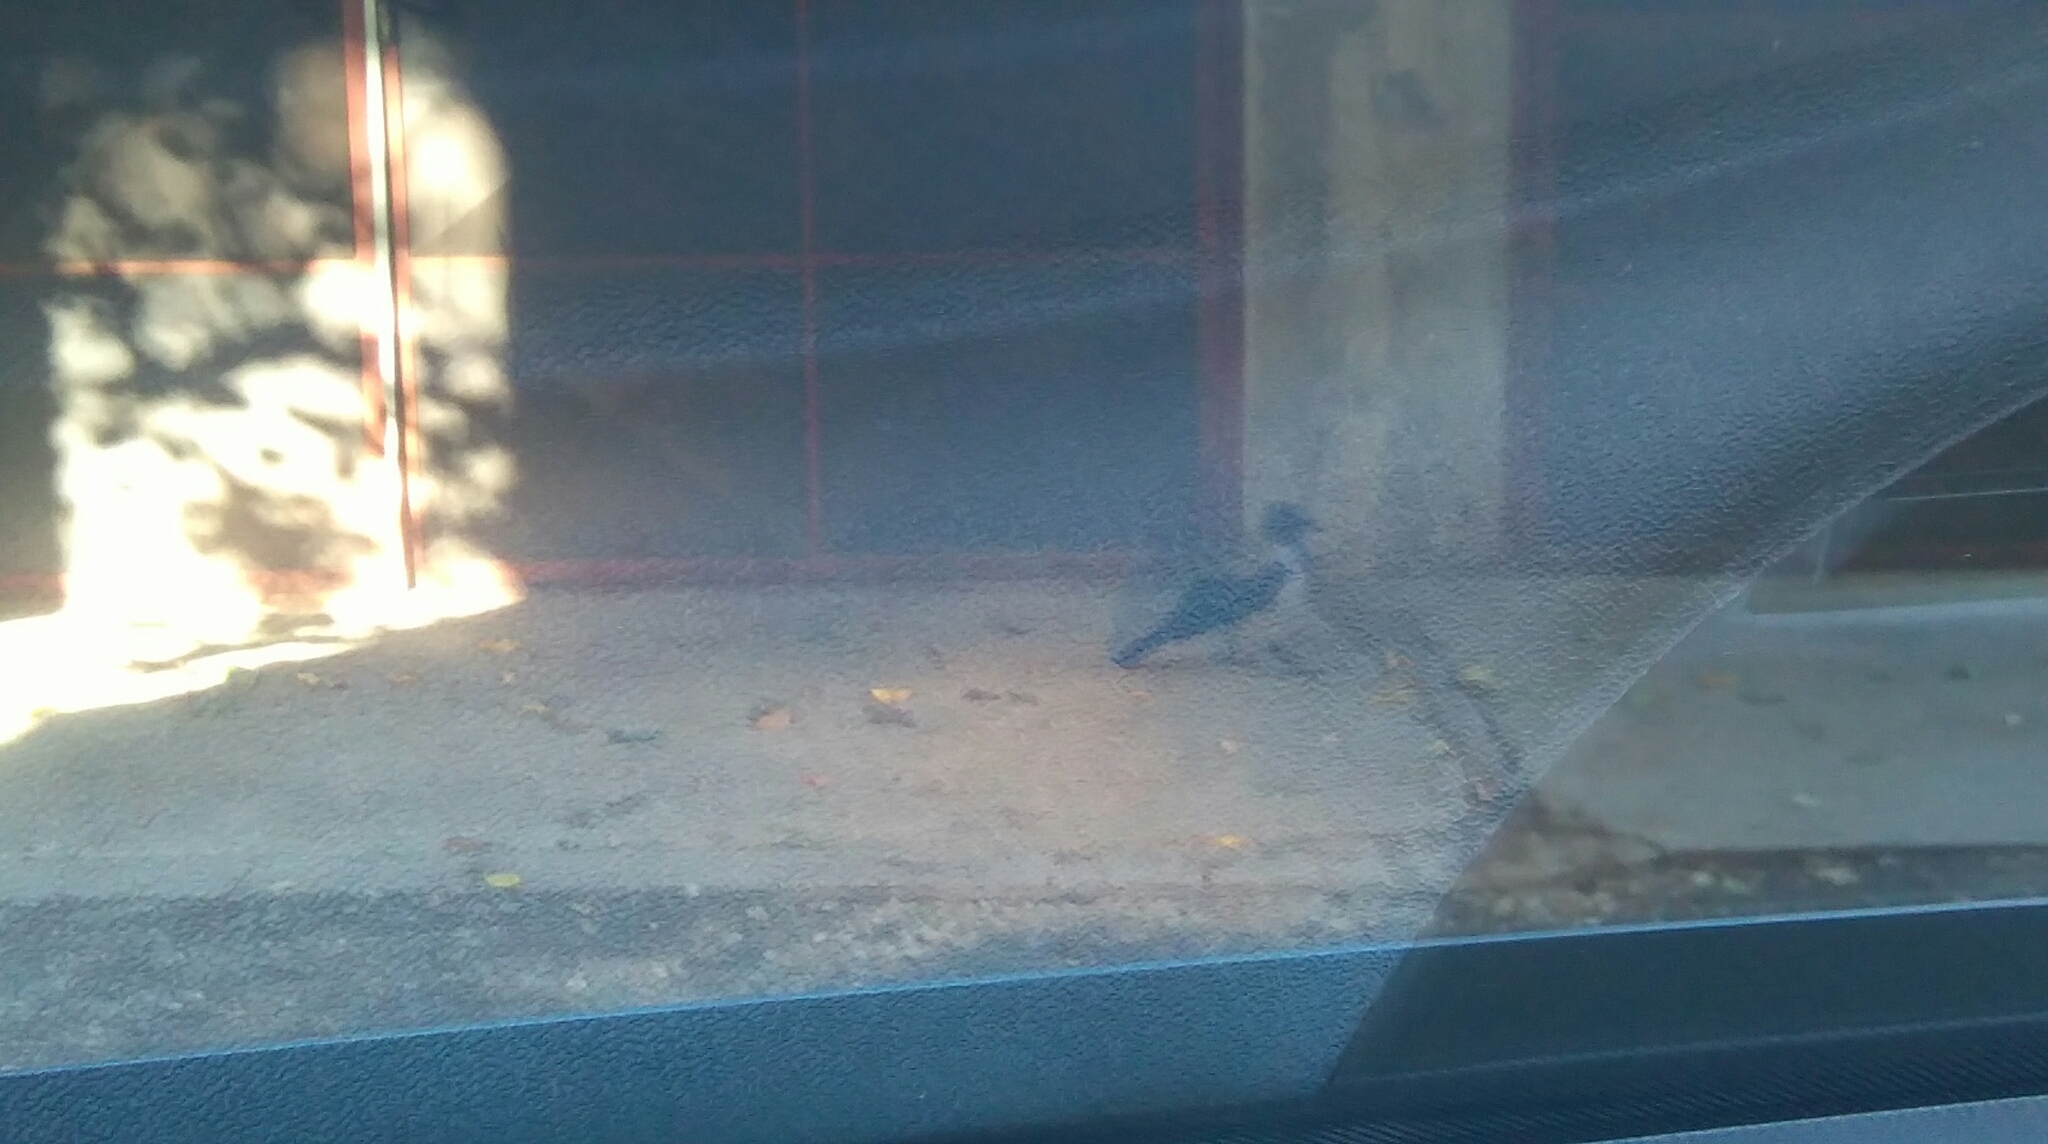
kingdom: Animalia
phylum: Chordata
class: Aves
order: Passeriformes
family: Corvidae
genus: Corvus
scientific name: Corvus cornix
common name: Hooded crow
